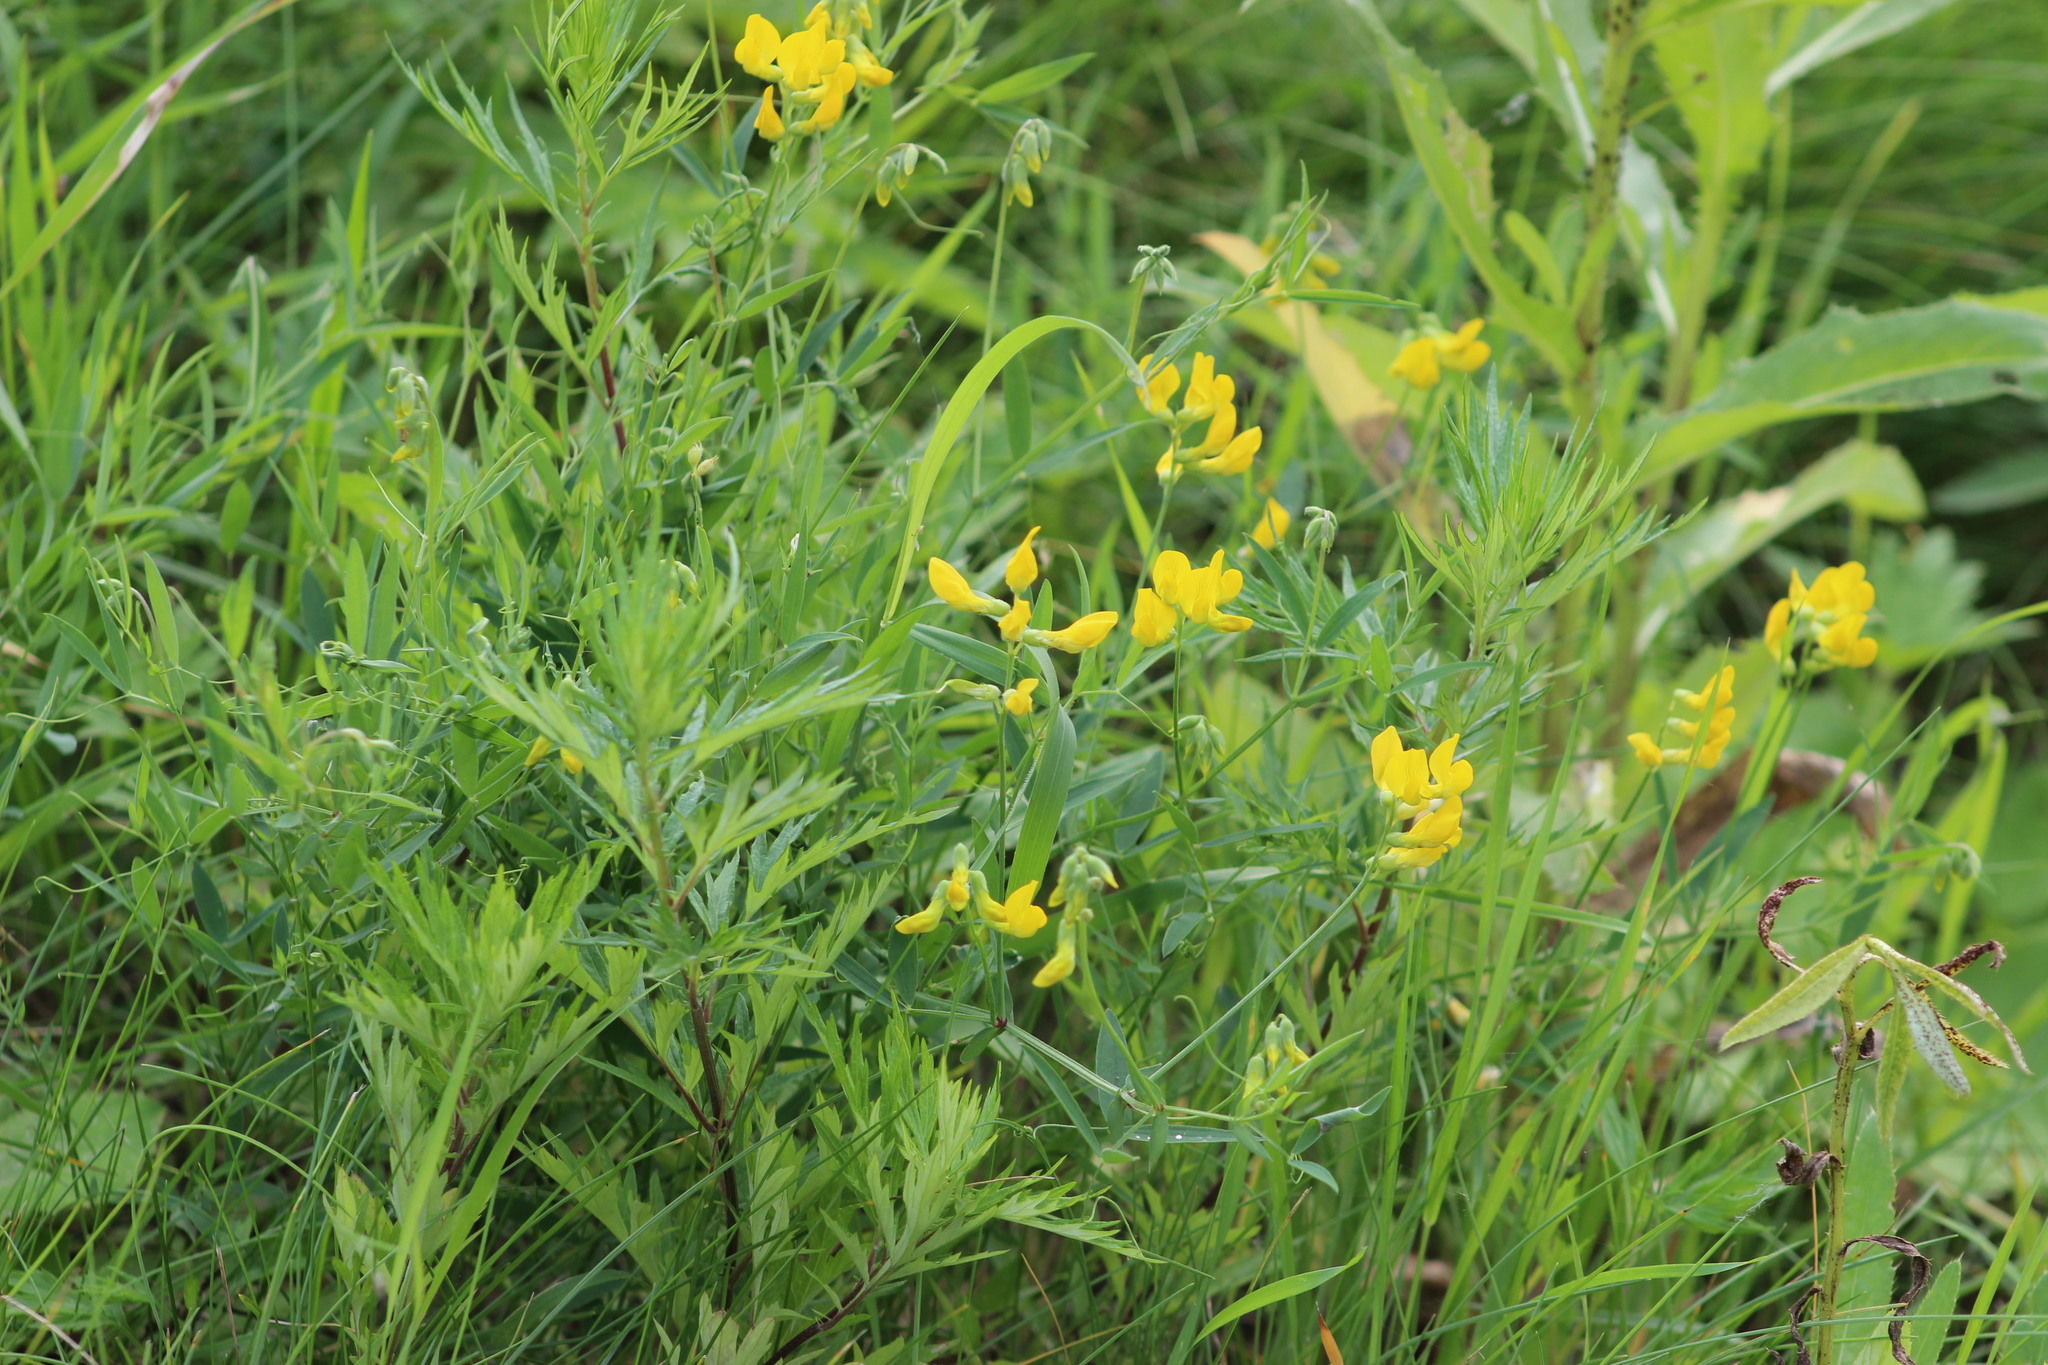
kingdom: Plantae
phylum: Tracheophyta
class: Magnoliopsida
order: Fabales
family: Fabaceae
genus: Lathyrus
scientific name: Lathyrus pratensis
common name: Meadow vetchling
